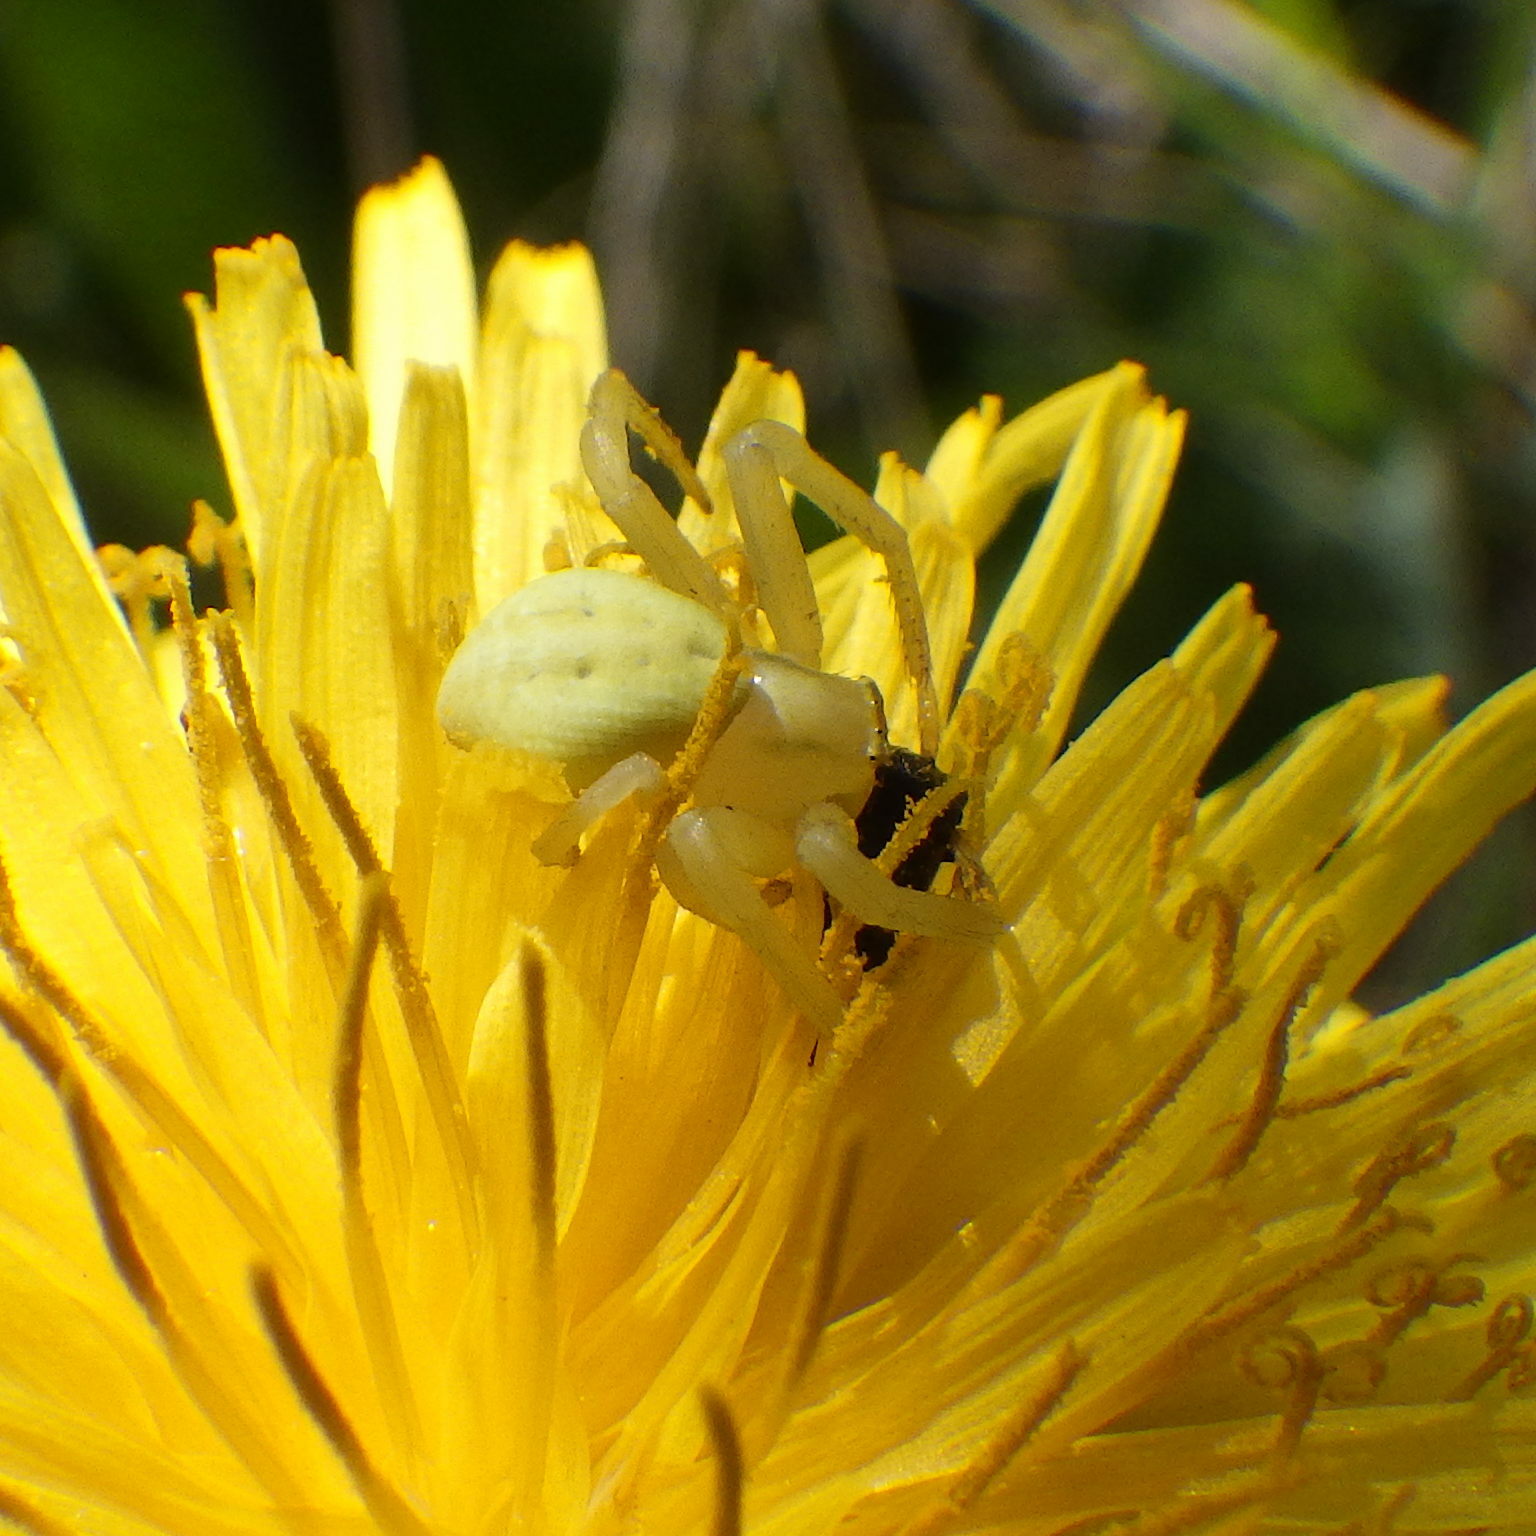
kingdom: Animalia
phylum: Arthropoda
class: Arachnida
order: Araneae
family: Thomisidae
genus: Misumena
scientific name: Misumena vatia
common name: Goldenrod crab spider
